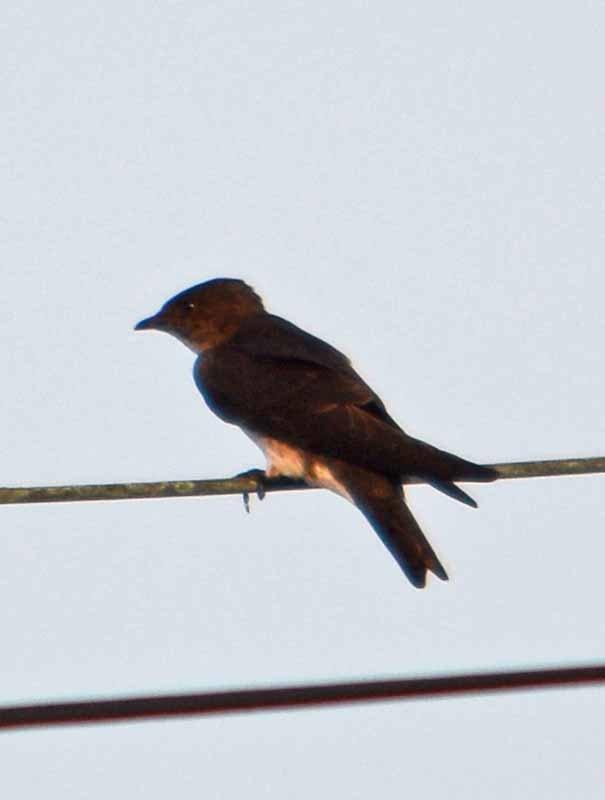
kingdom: Animalia
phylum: Chordata
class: Aves
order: Passeriformes
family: Hirundinidae
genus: Progne
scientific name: Progne chalybea
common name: Grey-breasted martin
